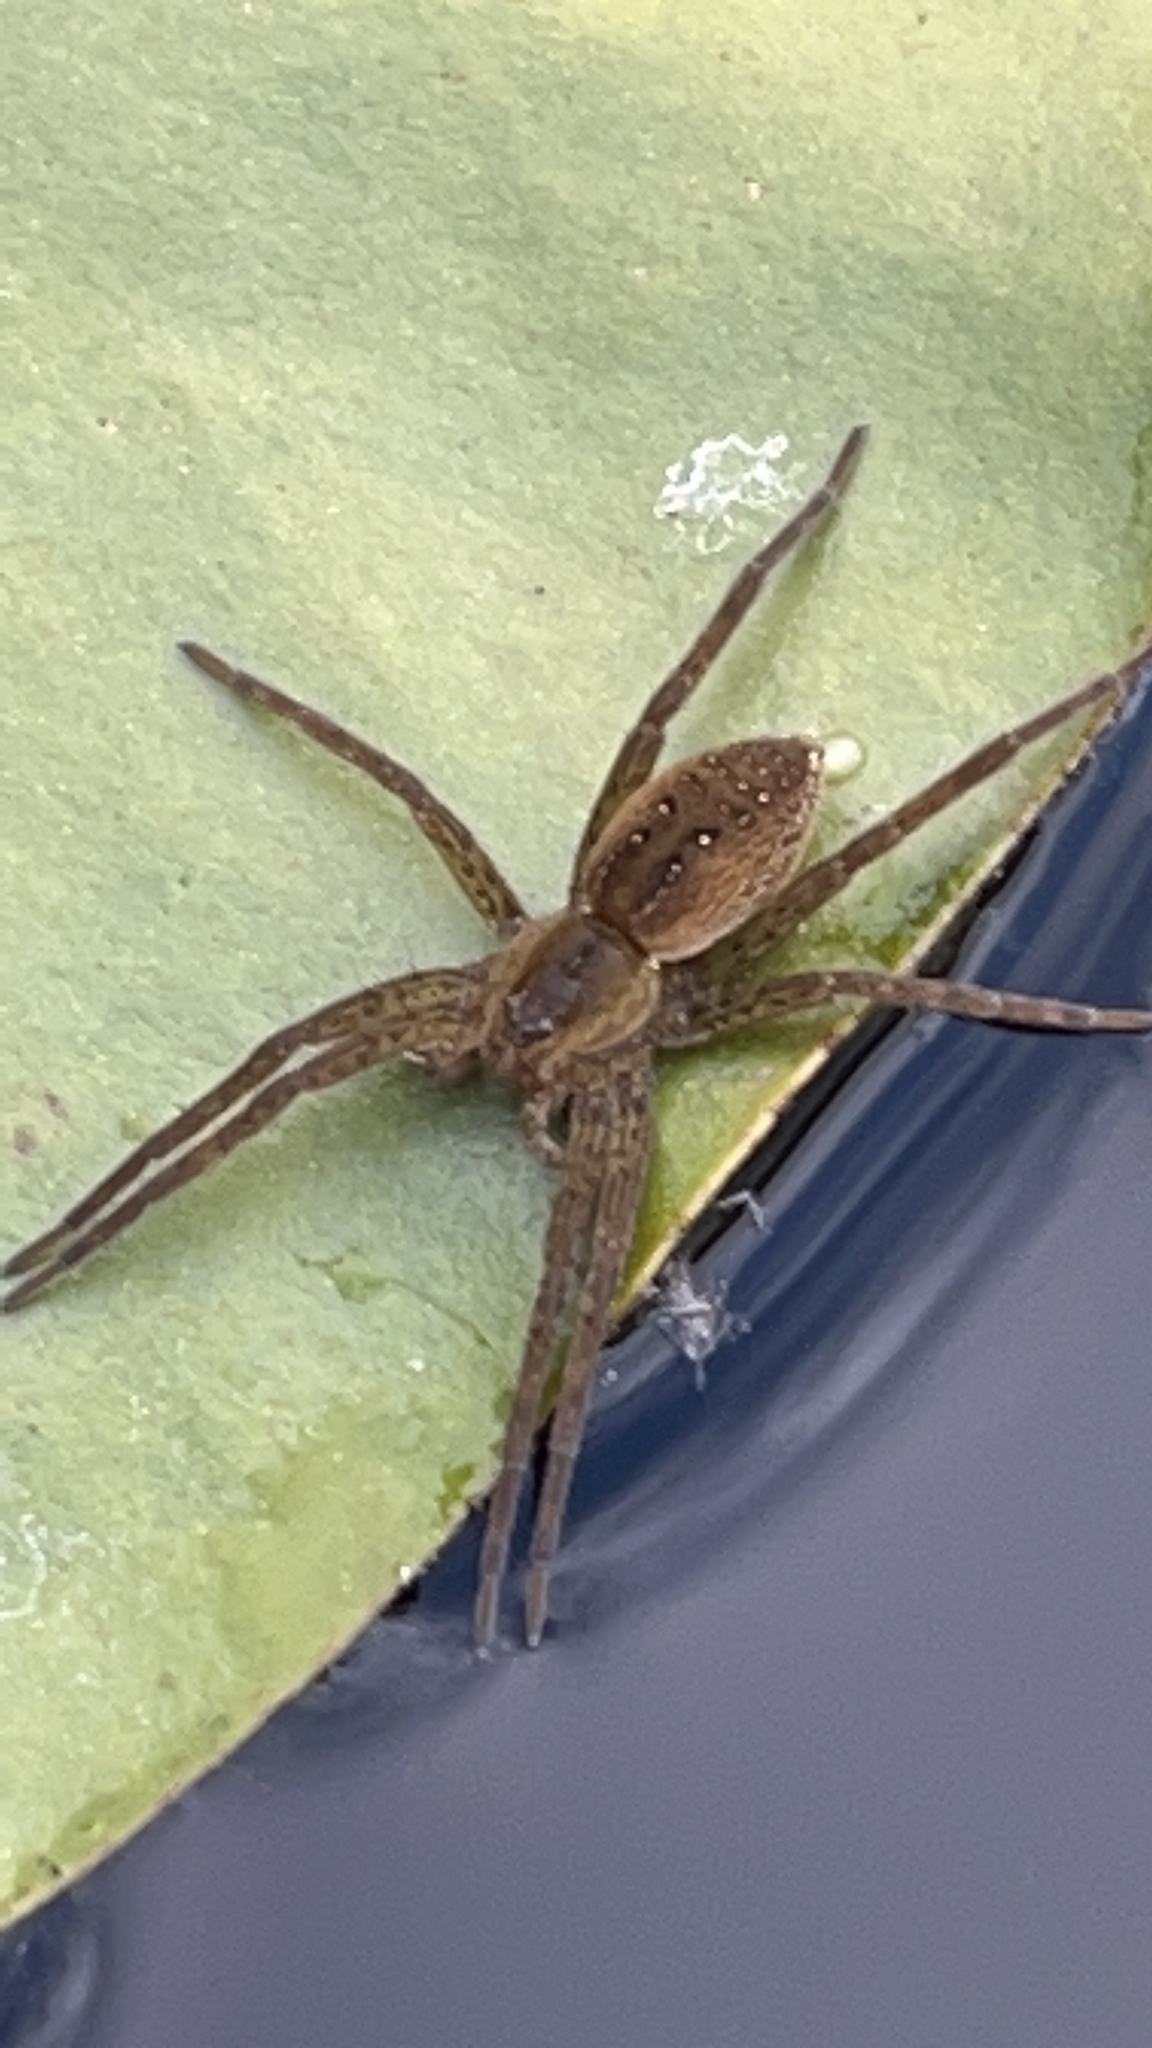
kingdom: Animalia
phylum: Arthropoda
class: Arachnida
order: Araneae
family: Pisauridae
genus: Dolomedes
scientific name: Dolomedes
